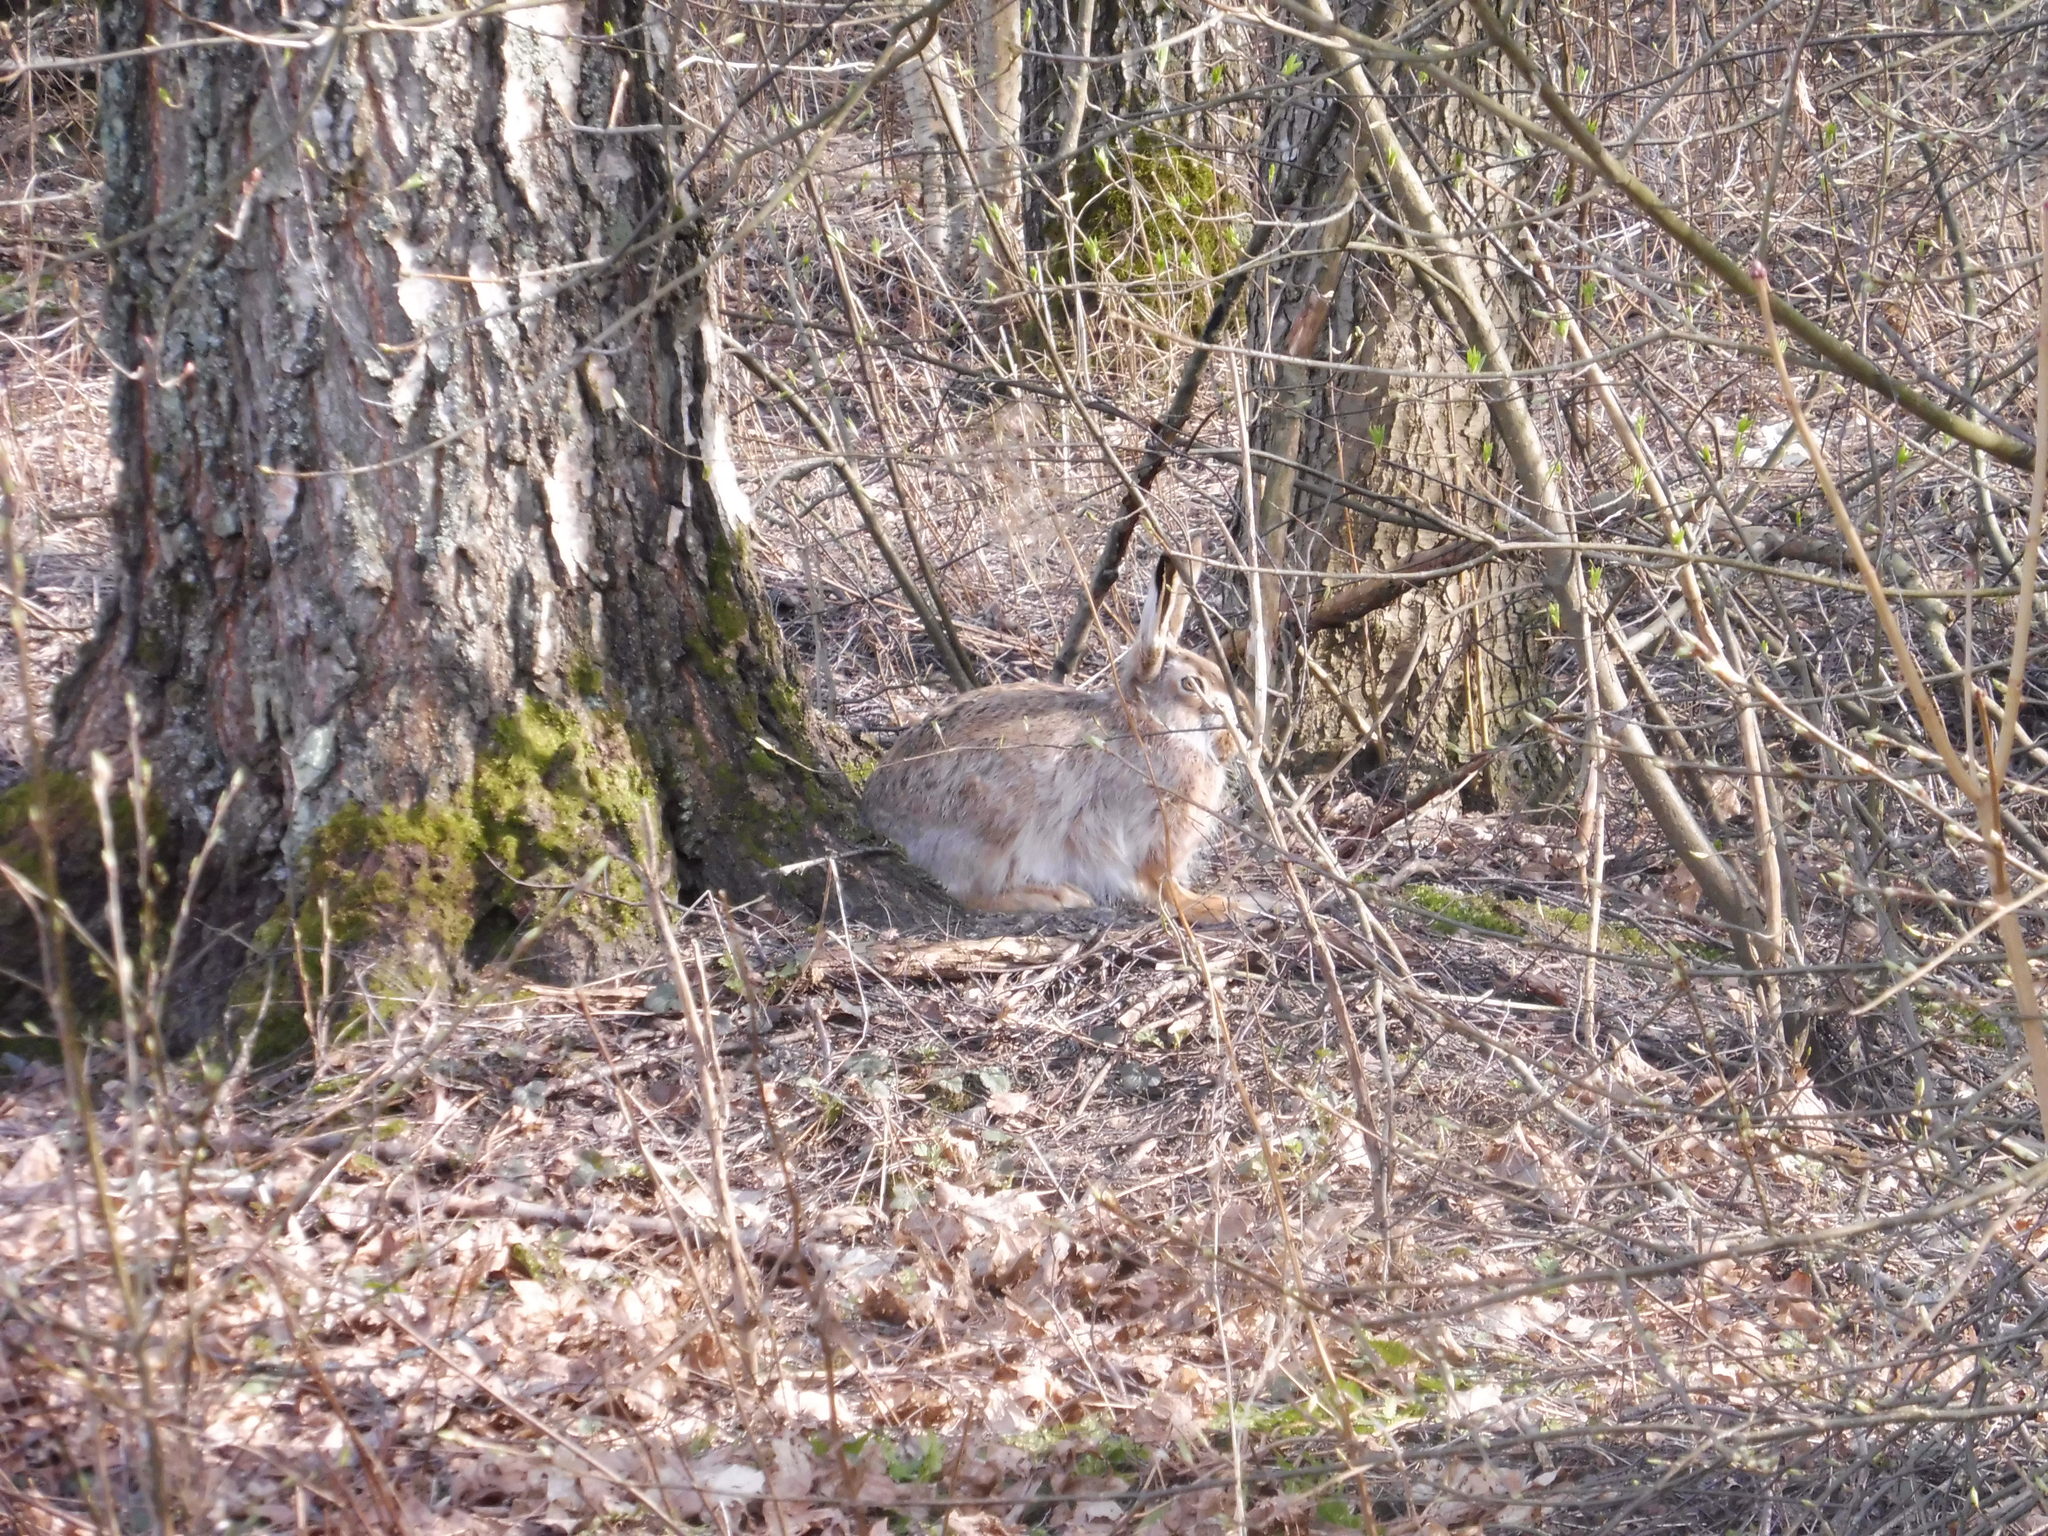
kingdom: Animalia
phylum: Chordata
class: Mammalia
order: Lagomorpha
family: Leporidae
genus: Lepus
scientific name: Lepus europaeus
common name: European hare
